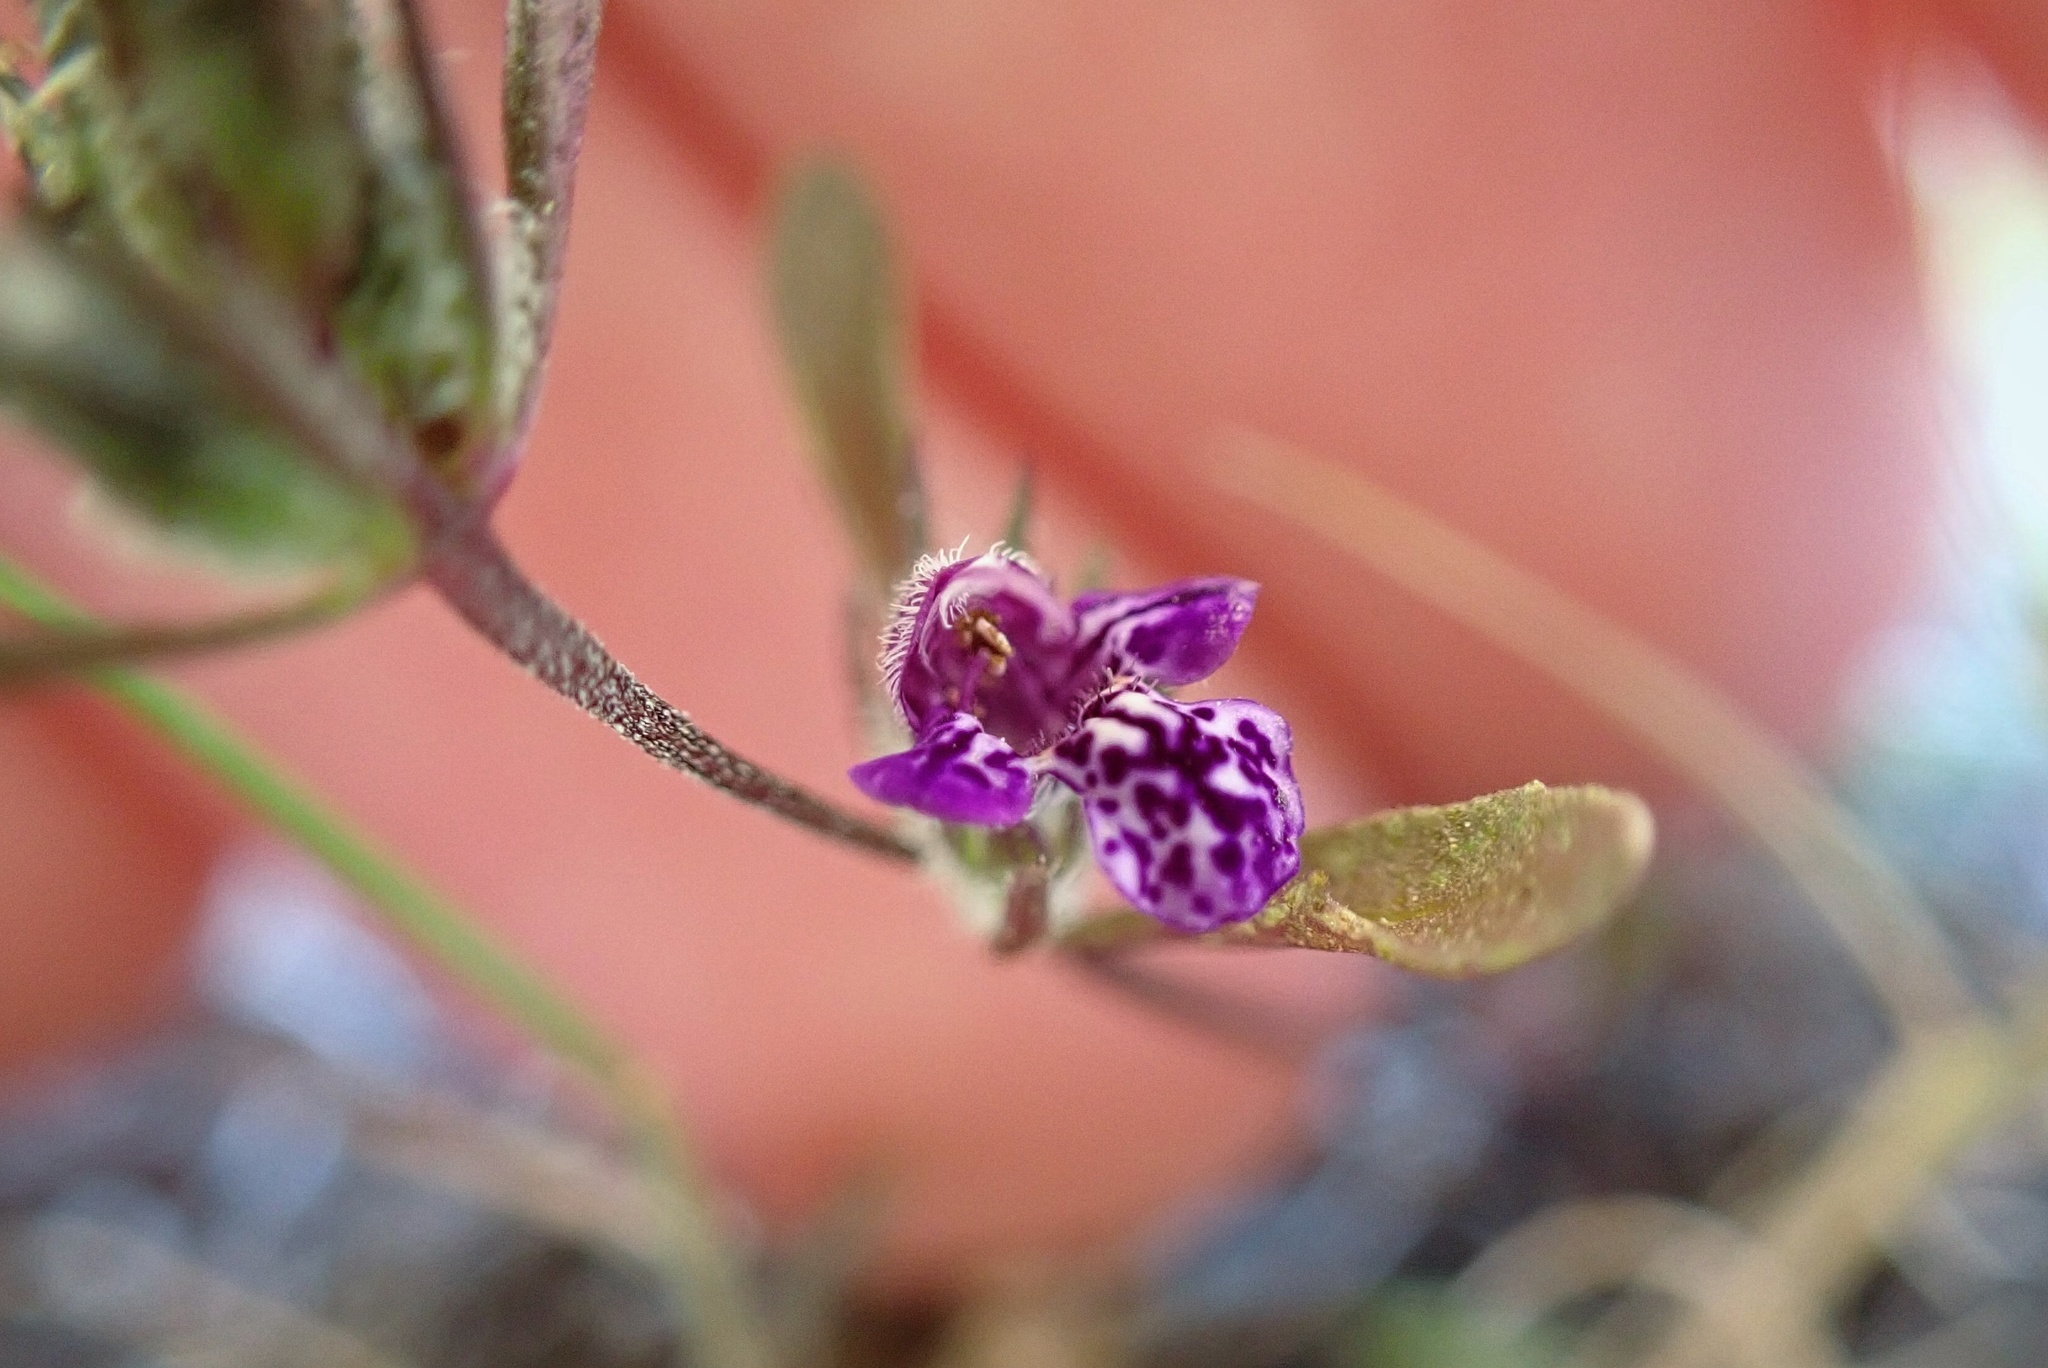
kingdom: Plantae
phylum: Tracheophyta
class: Magnoliopsida
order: Lamiales
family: Lamiaceae
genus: Pogogyne
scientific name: Pogogyne abramsii
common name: San diego mesa-mint
